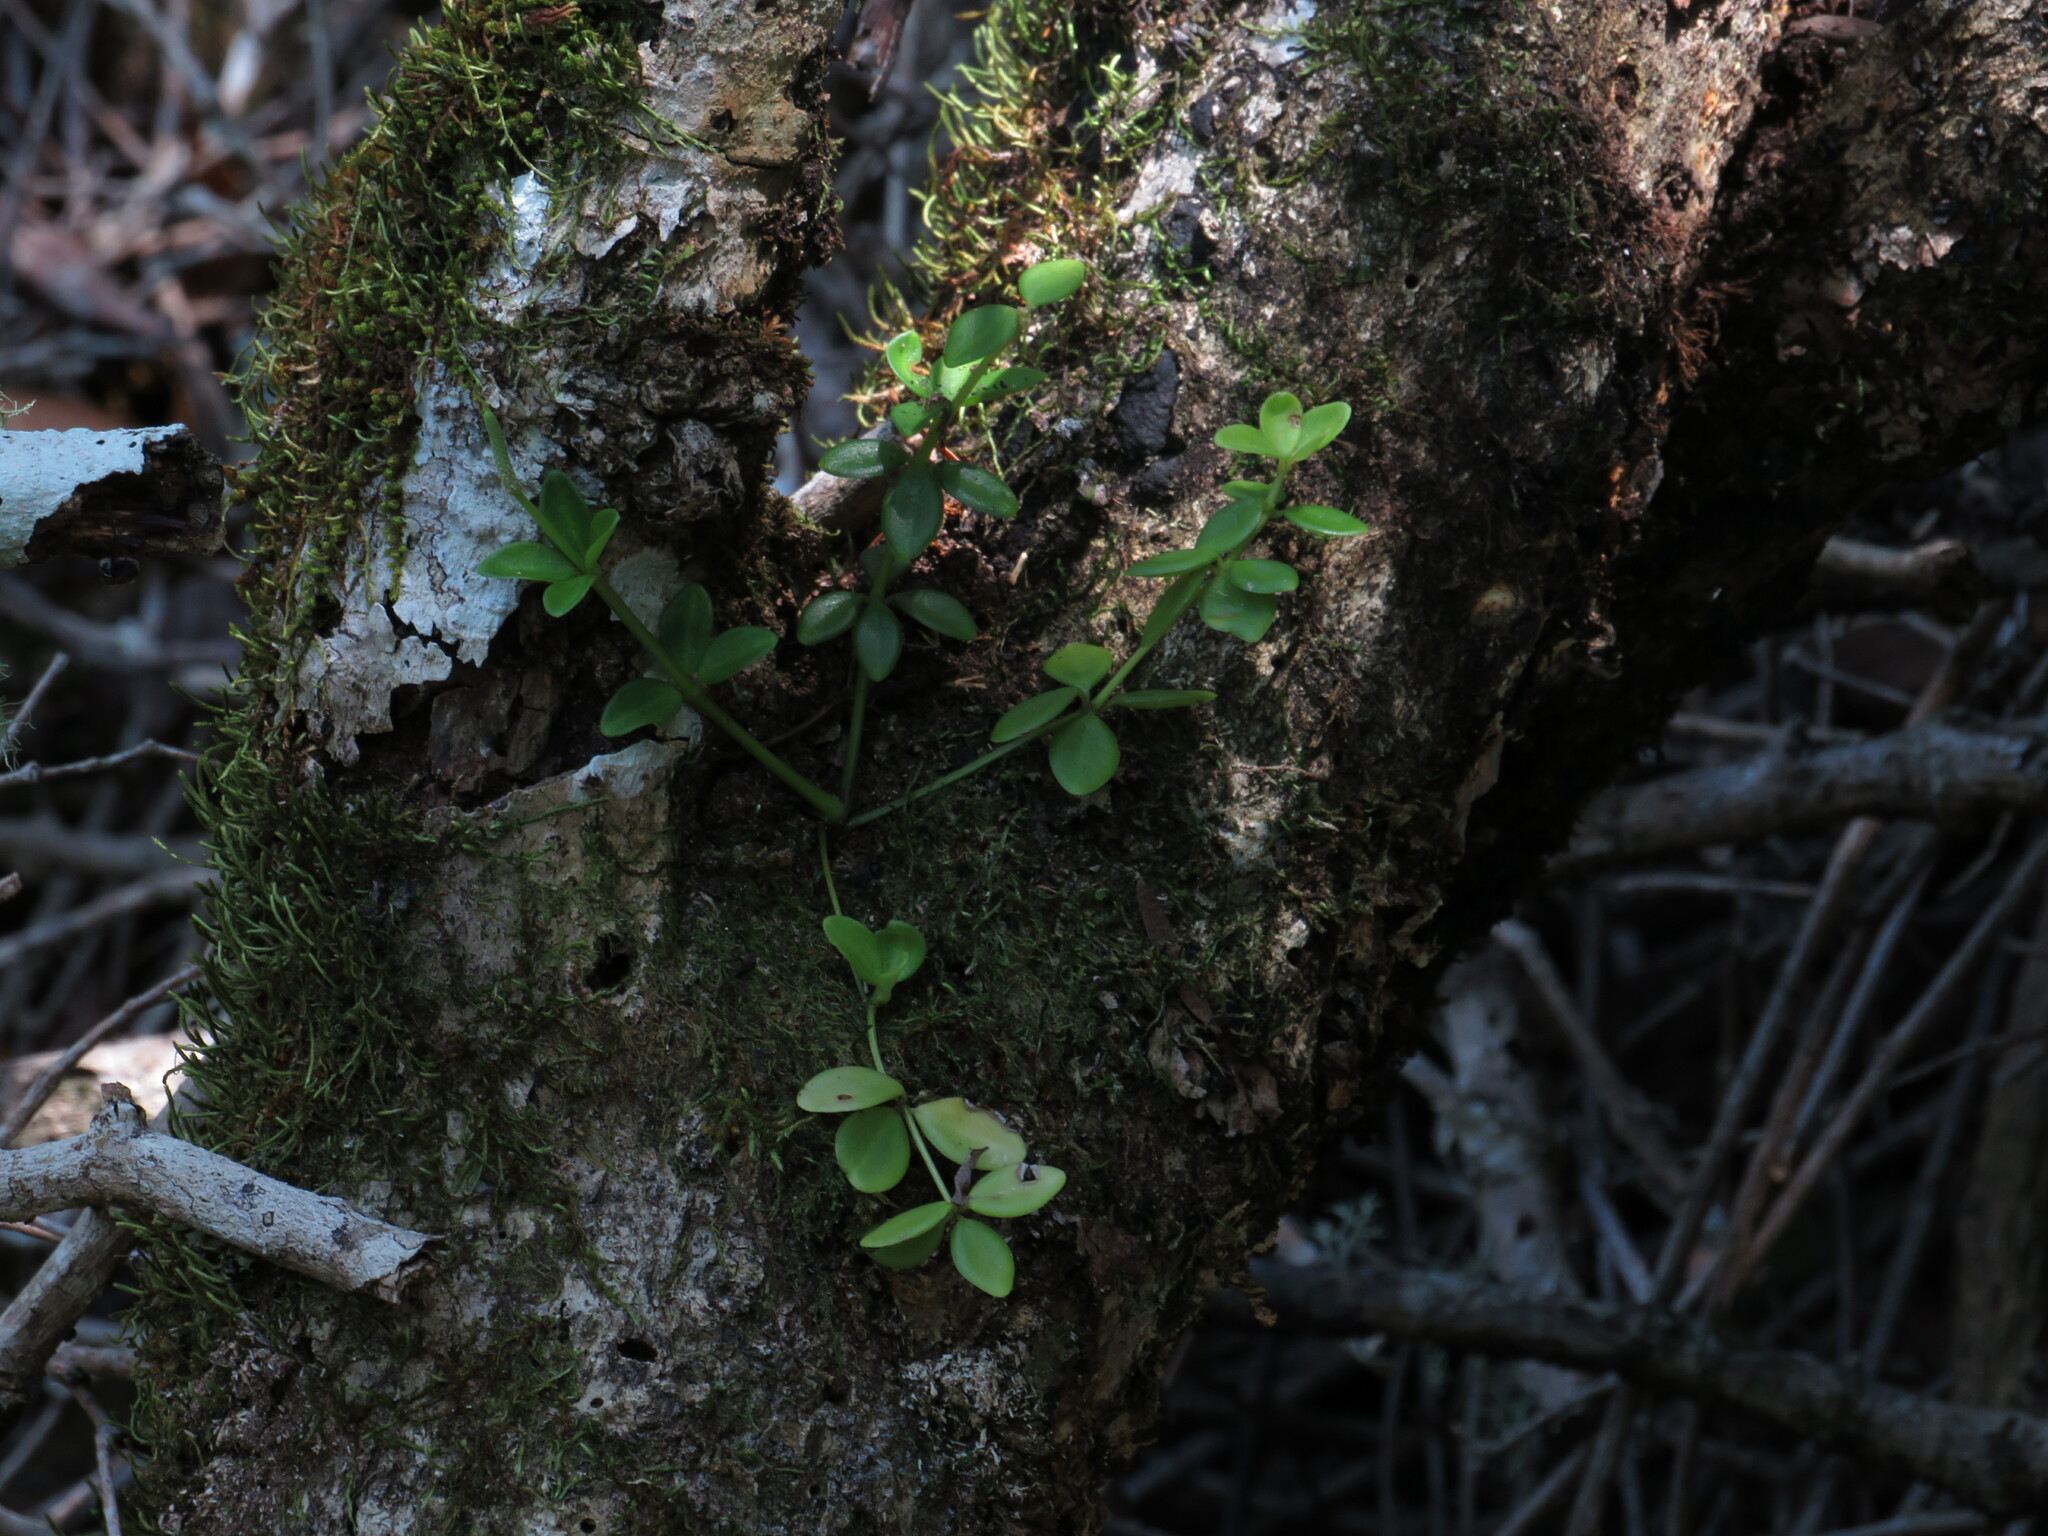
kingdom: Plantae
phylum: Tracheophyta
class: Magnoliopsida
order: Piperales
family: Piperaceae
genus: Peperomia
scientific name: Peperomia tetraphylla
